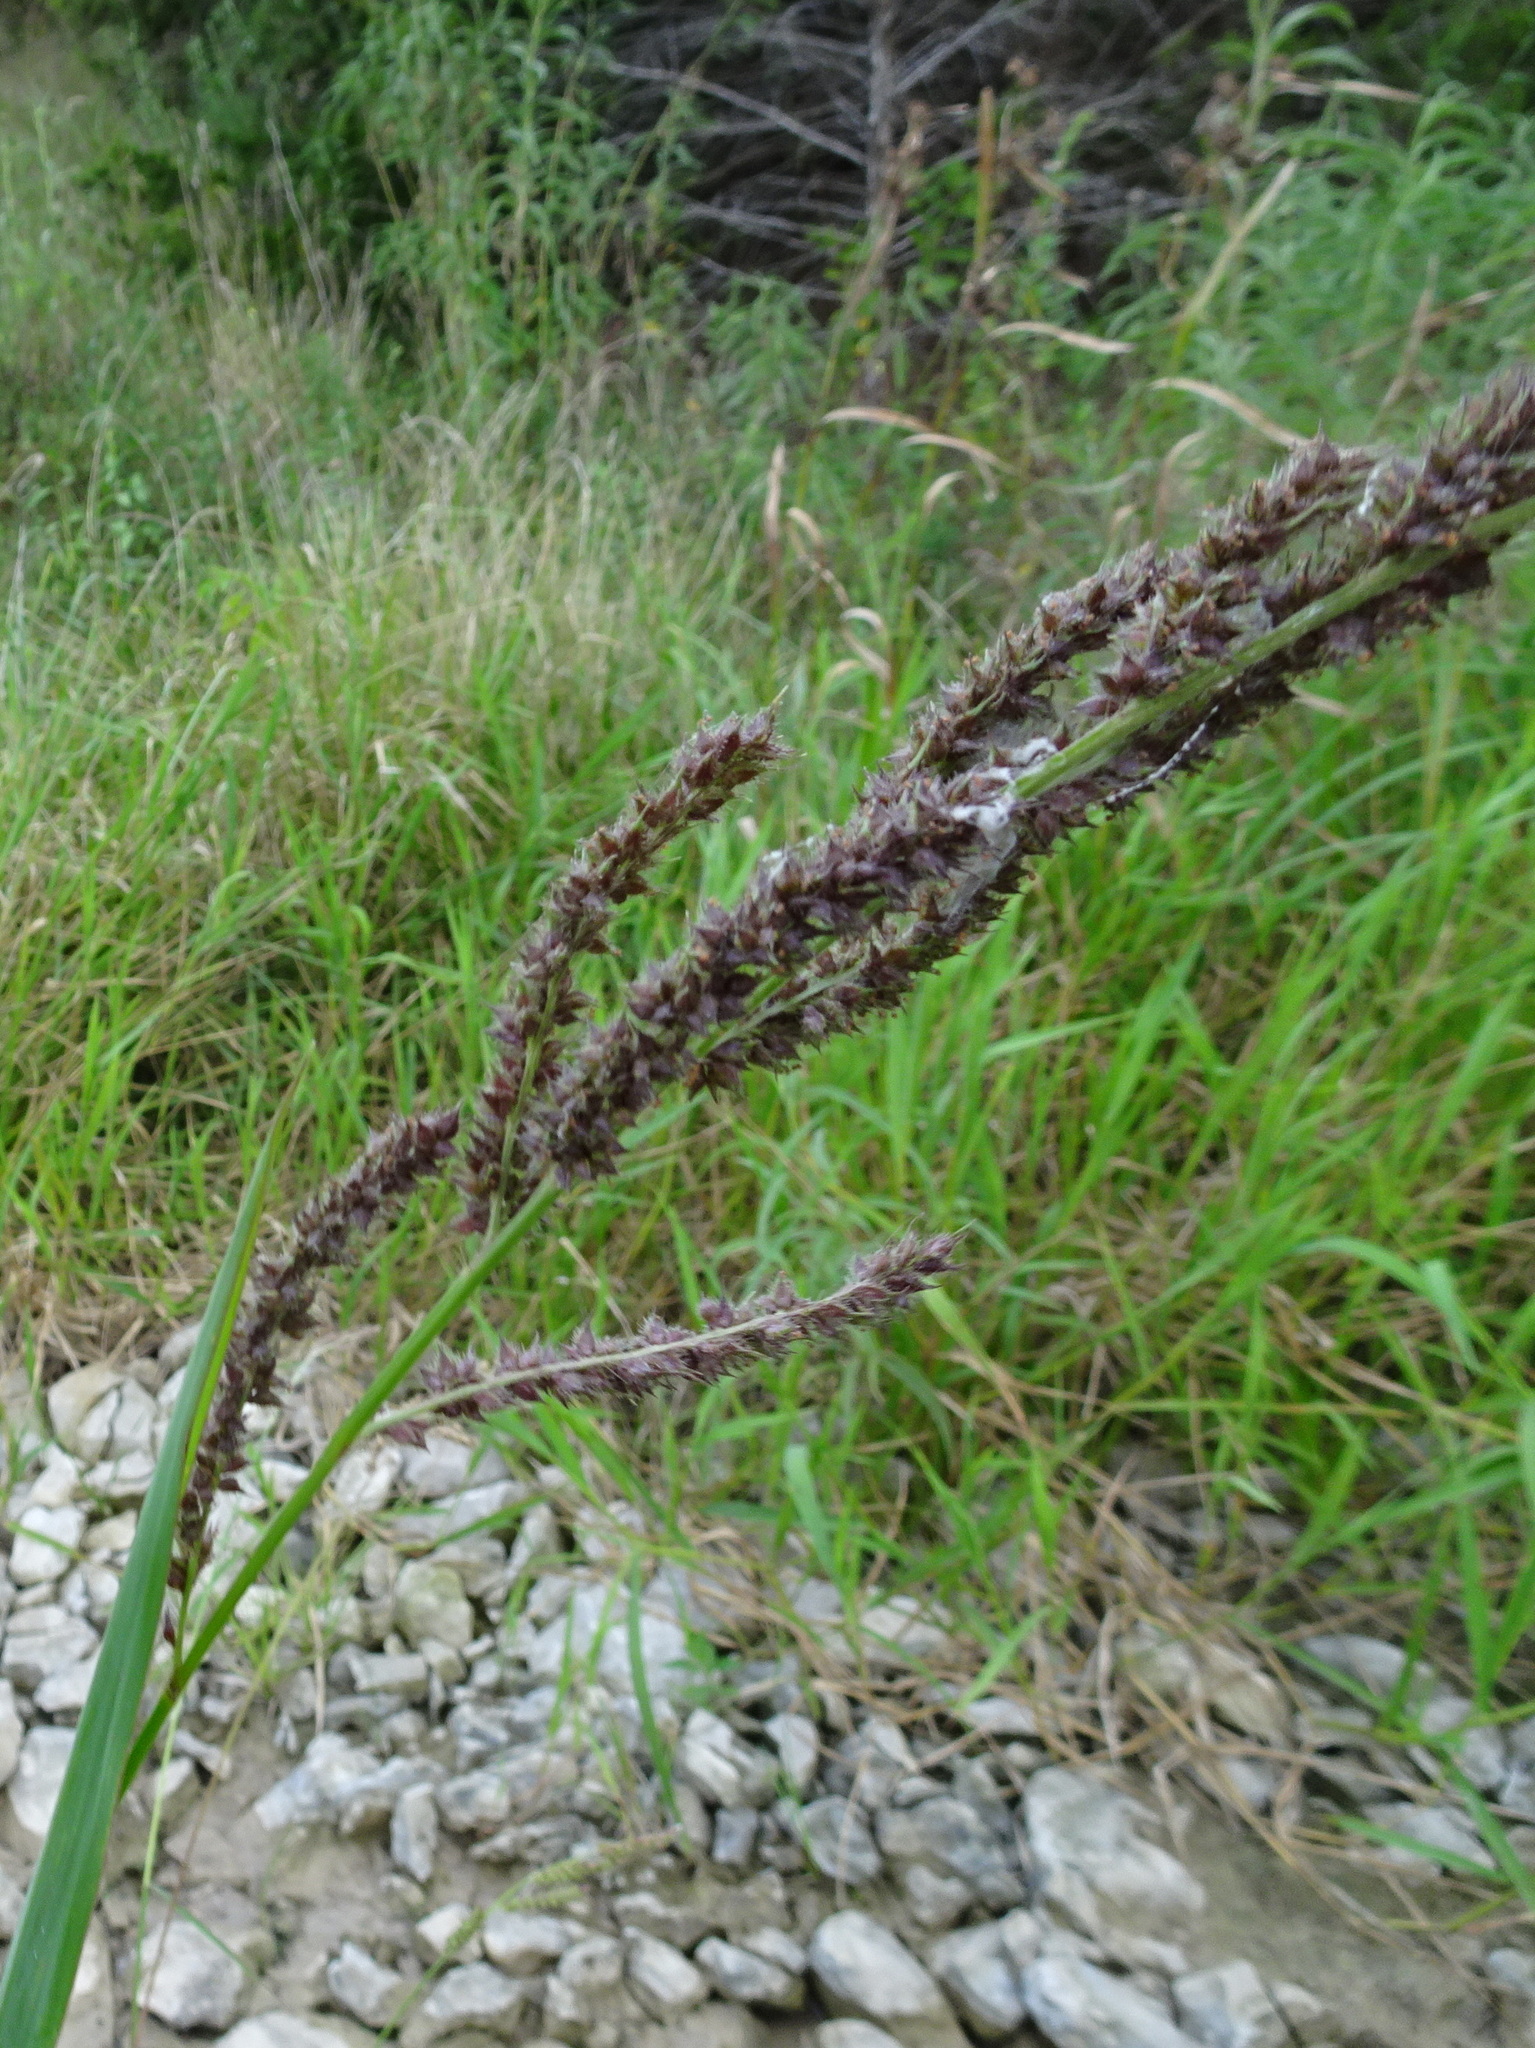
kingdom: Plantae
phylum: Tracheophyta
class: Liliopsida
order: Poales
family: Poaceae
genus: Echinochloa
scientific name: Echinochloa
